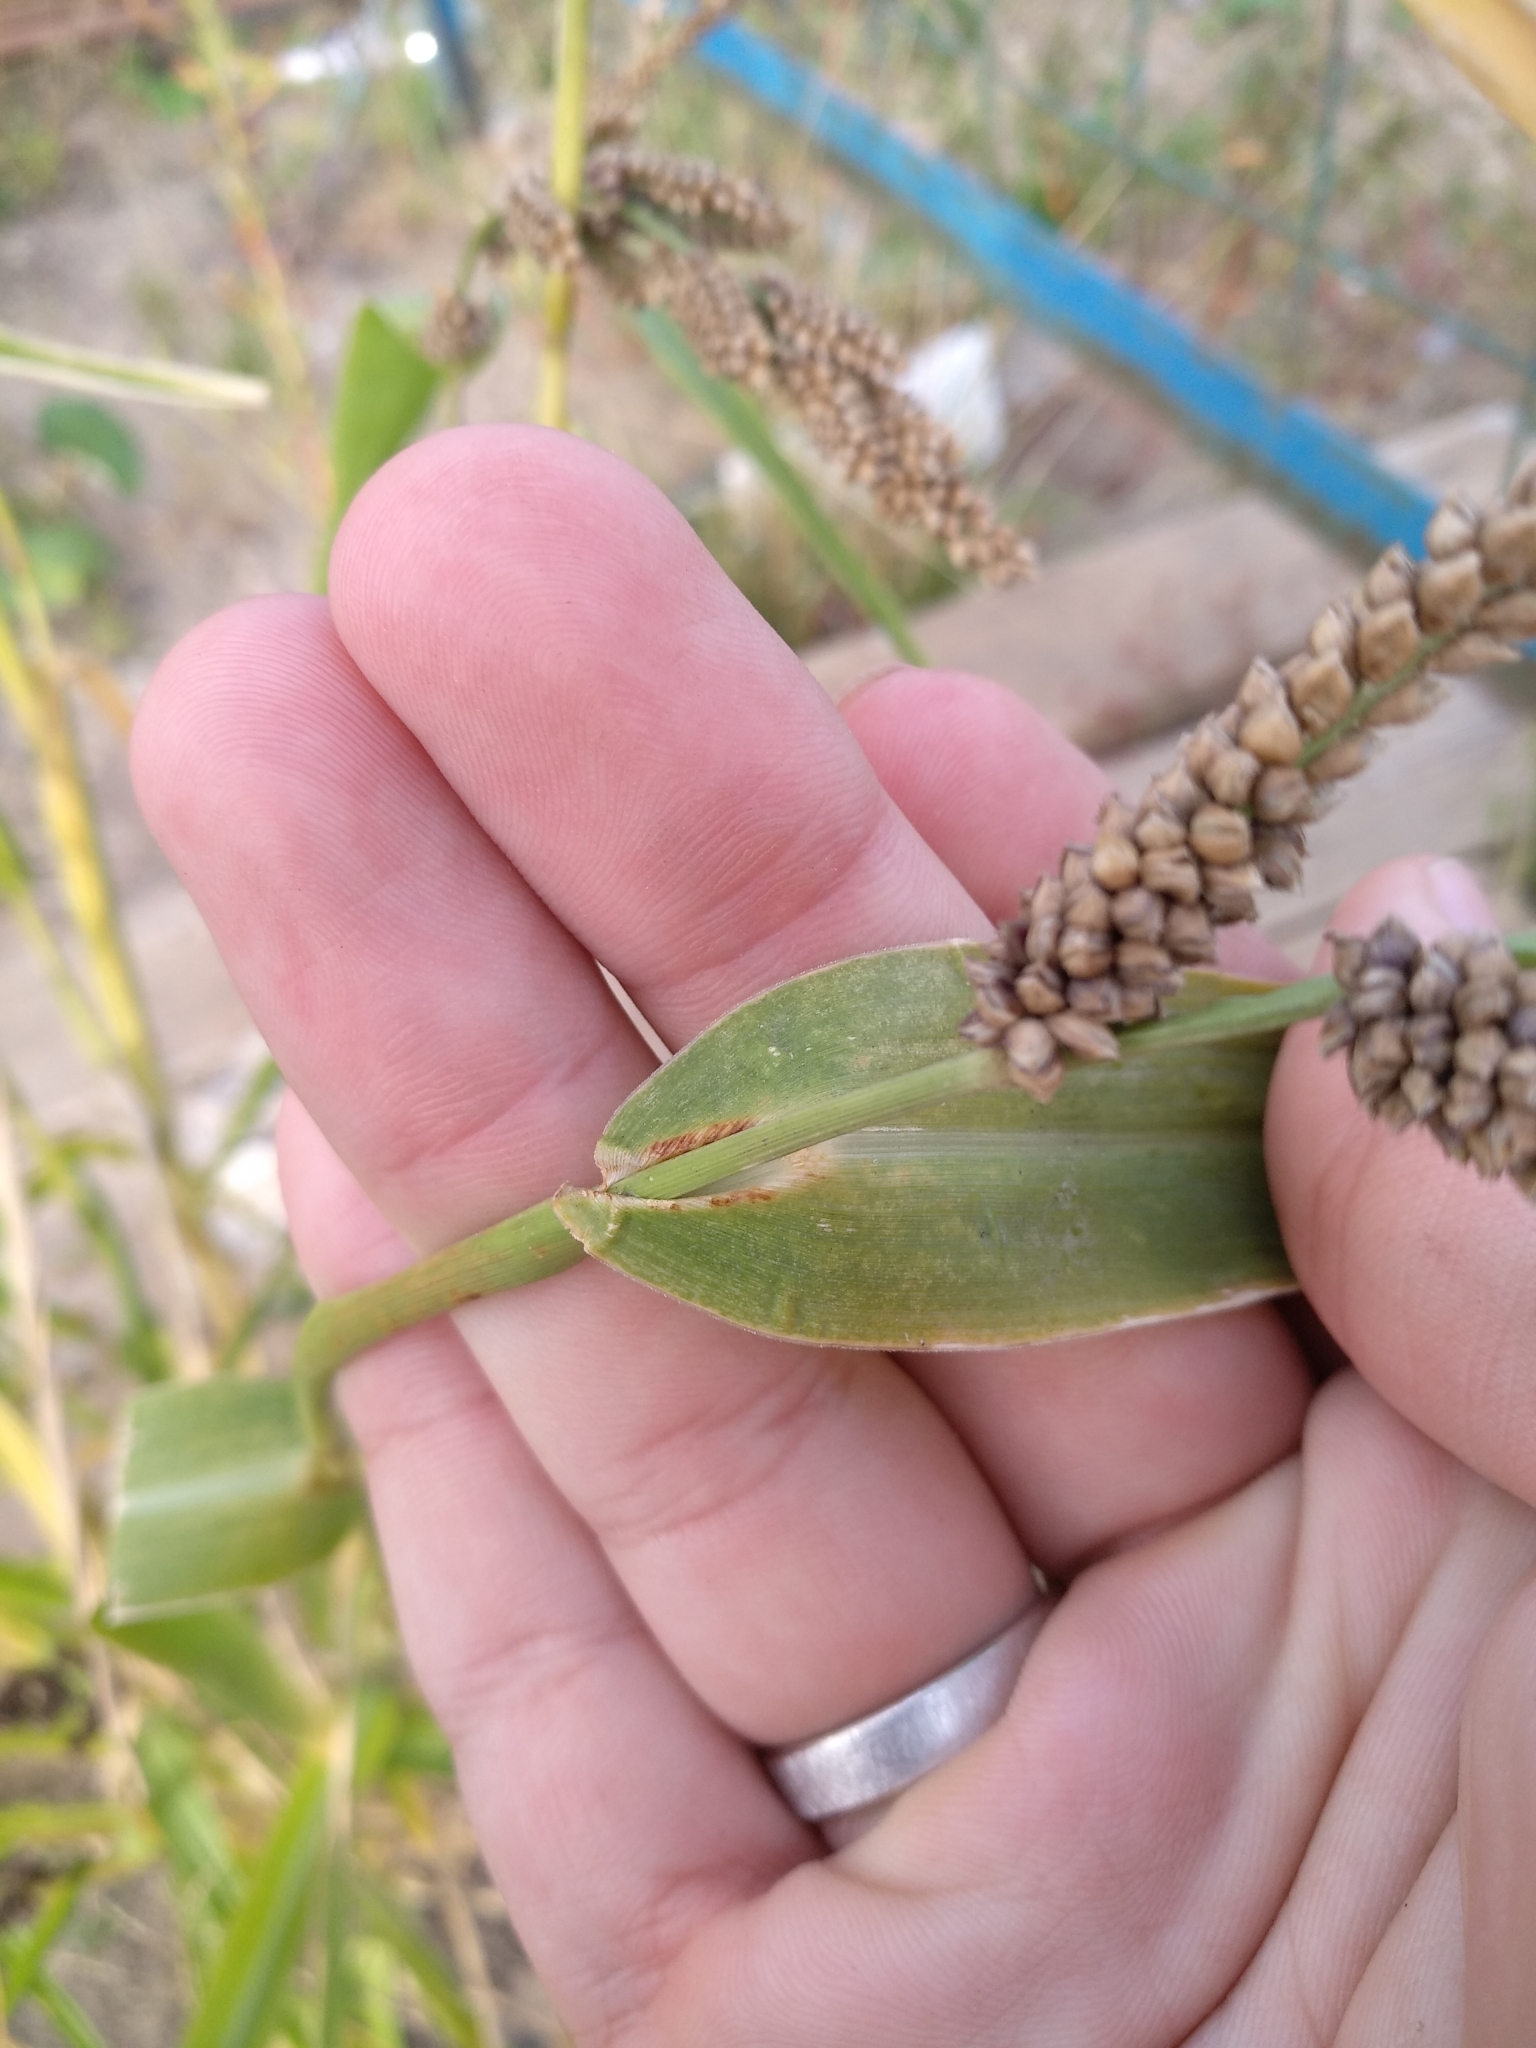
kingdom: Plantae
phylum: Tracheophyta
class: Liliopsida
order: Poales
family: Poaceae
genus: Echinochloa
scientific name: Echinochloa crus-galli
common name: Cockspur
